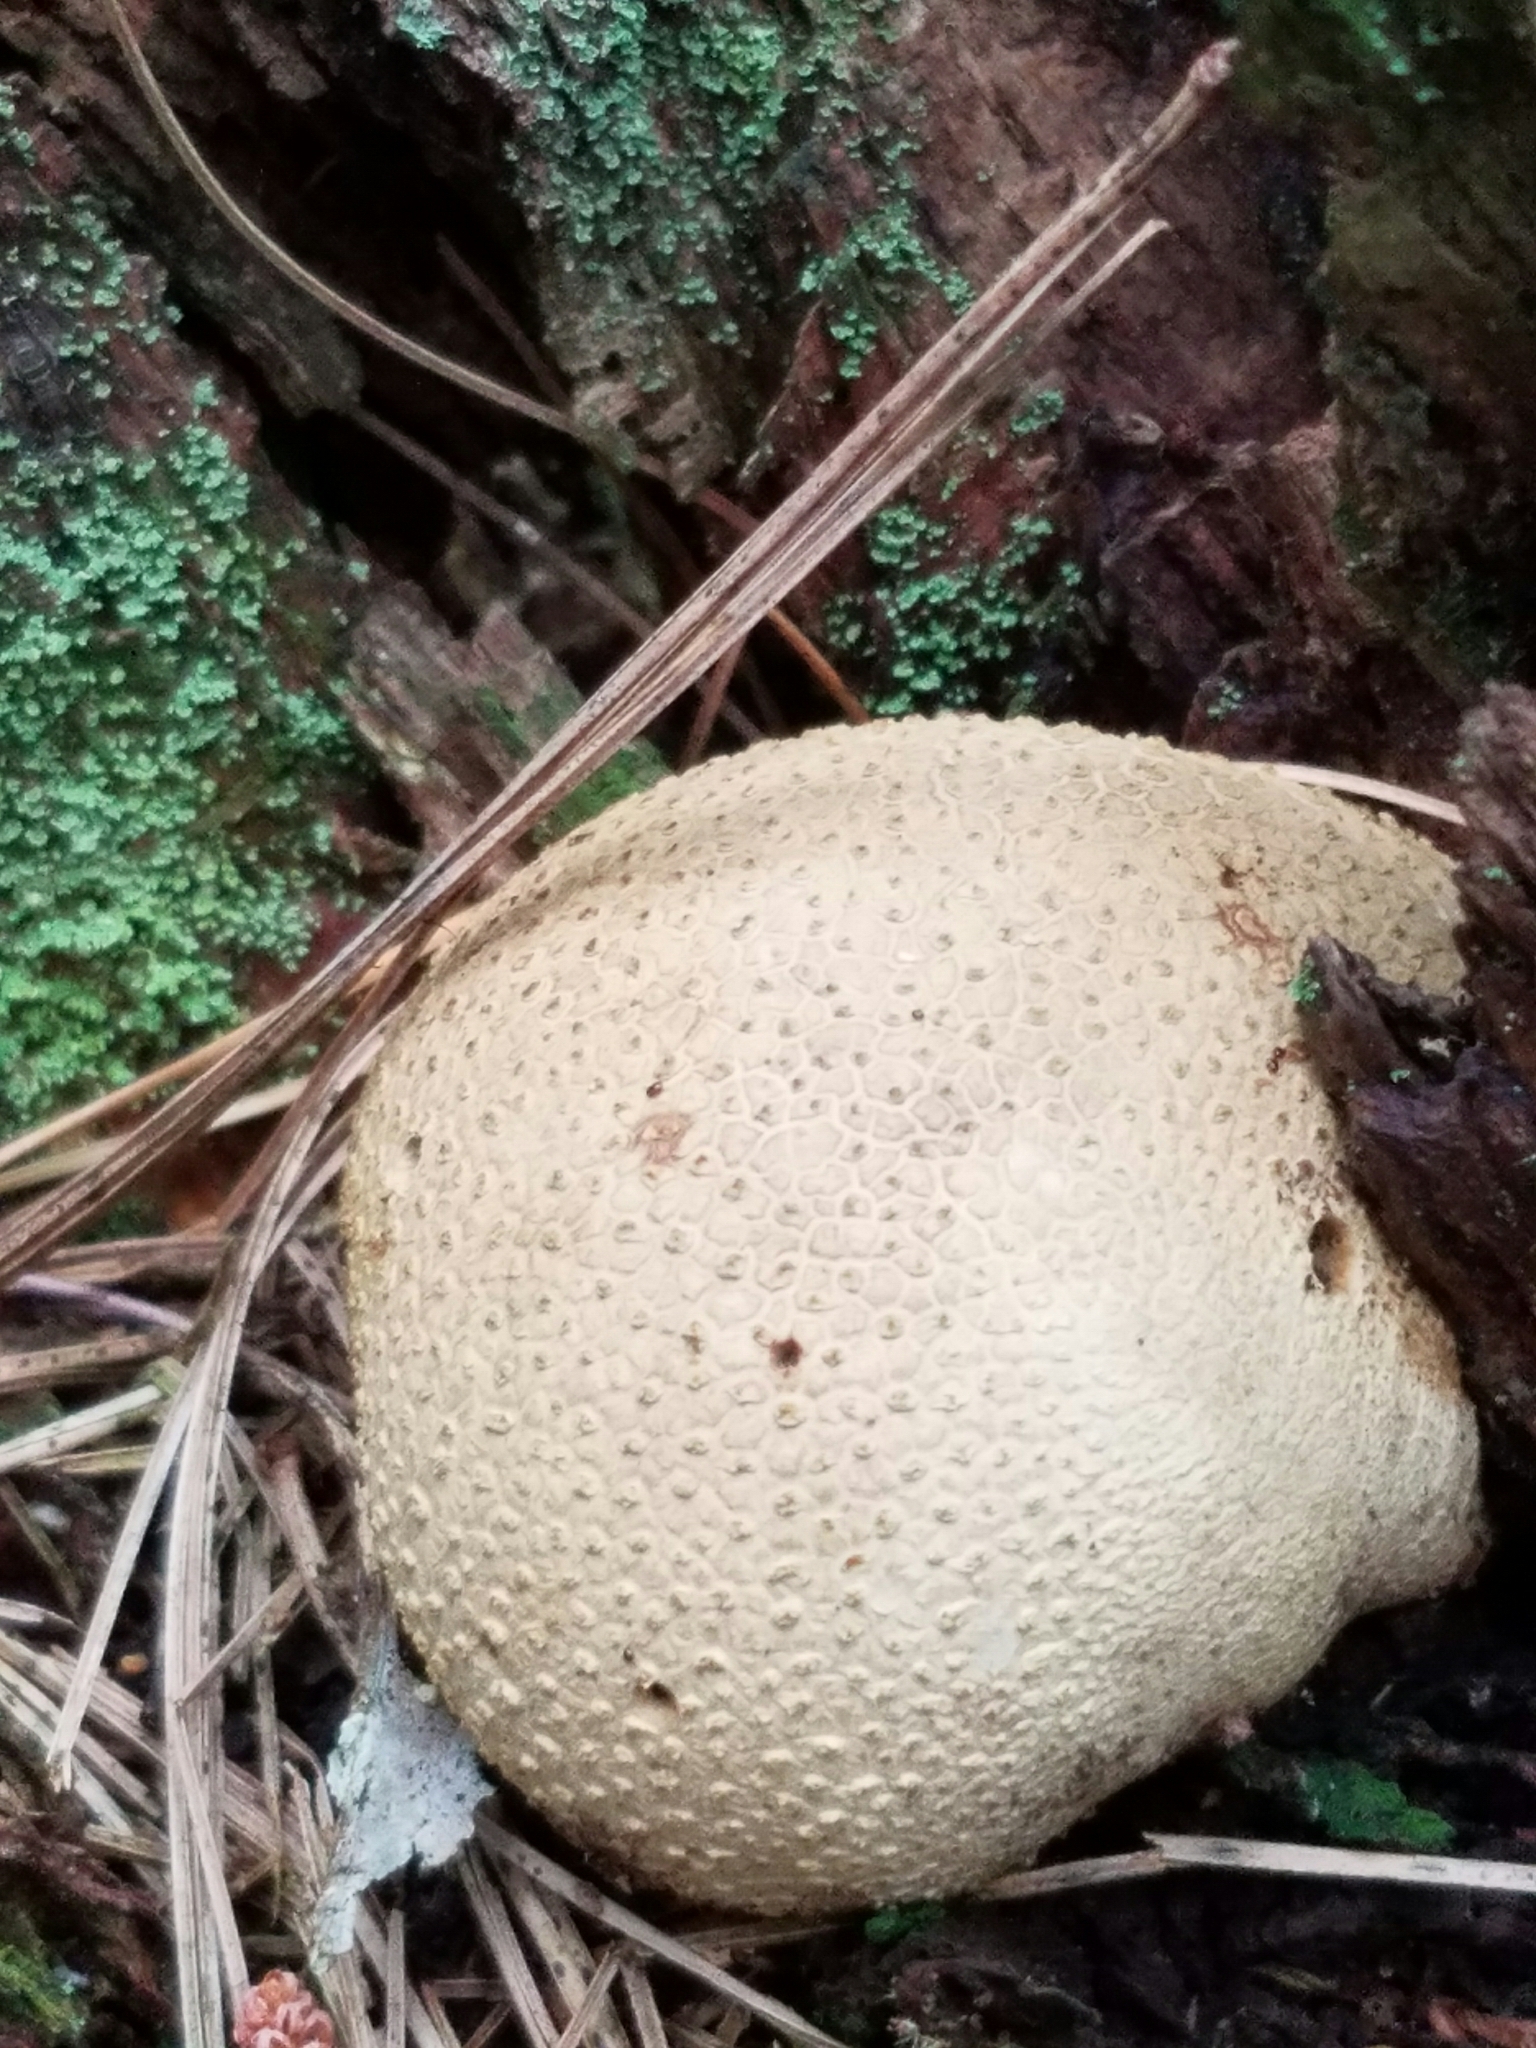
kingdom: Fungi
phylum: Basidiomycota
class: Agaricomycetes
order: Boletales
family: Sclerodermataceae
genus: Scleroderma
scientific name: Scleroderma citrinum
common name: Common earthball
